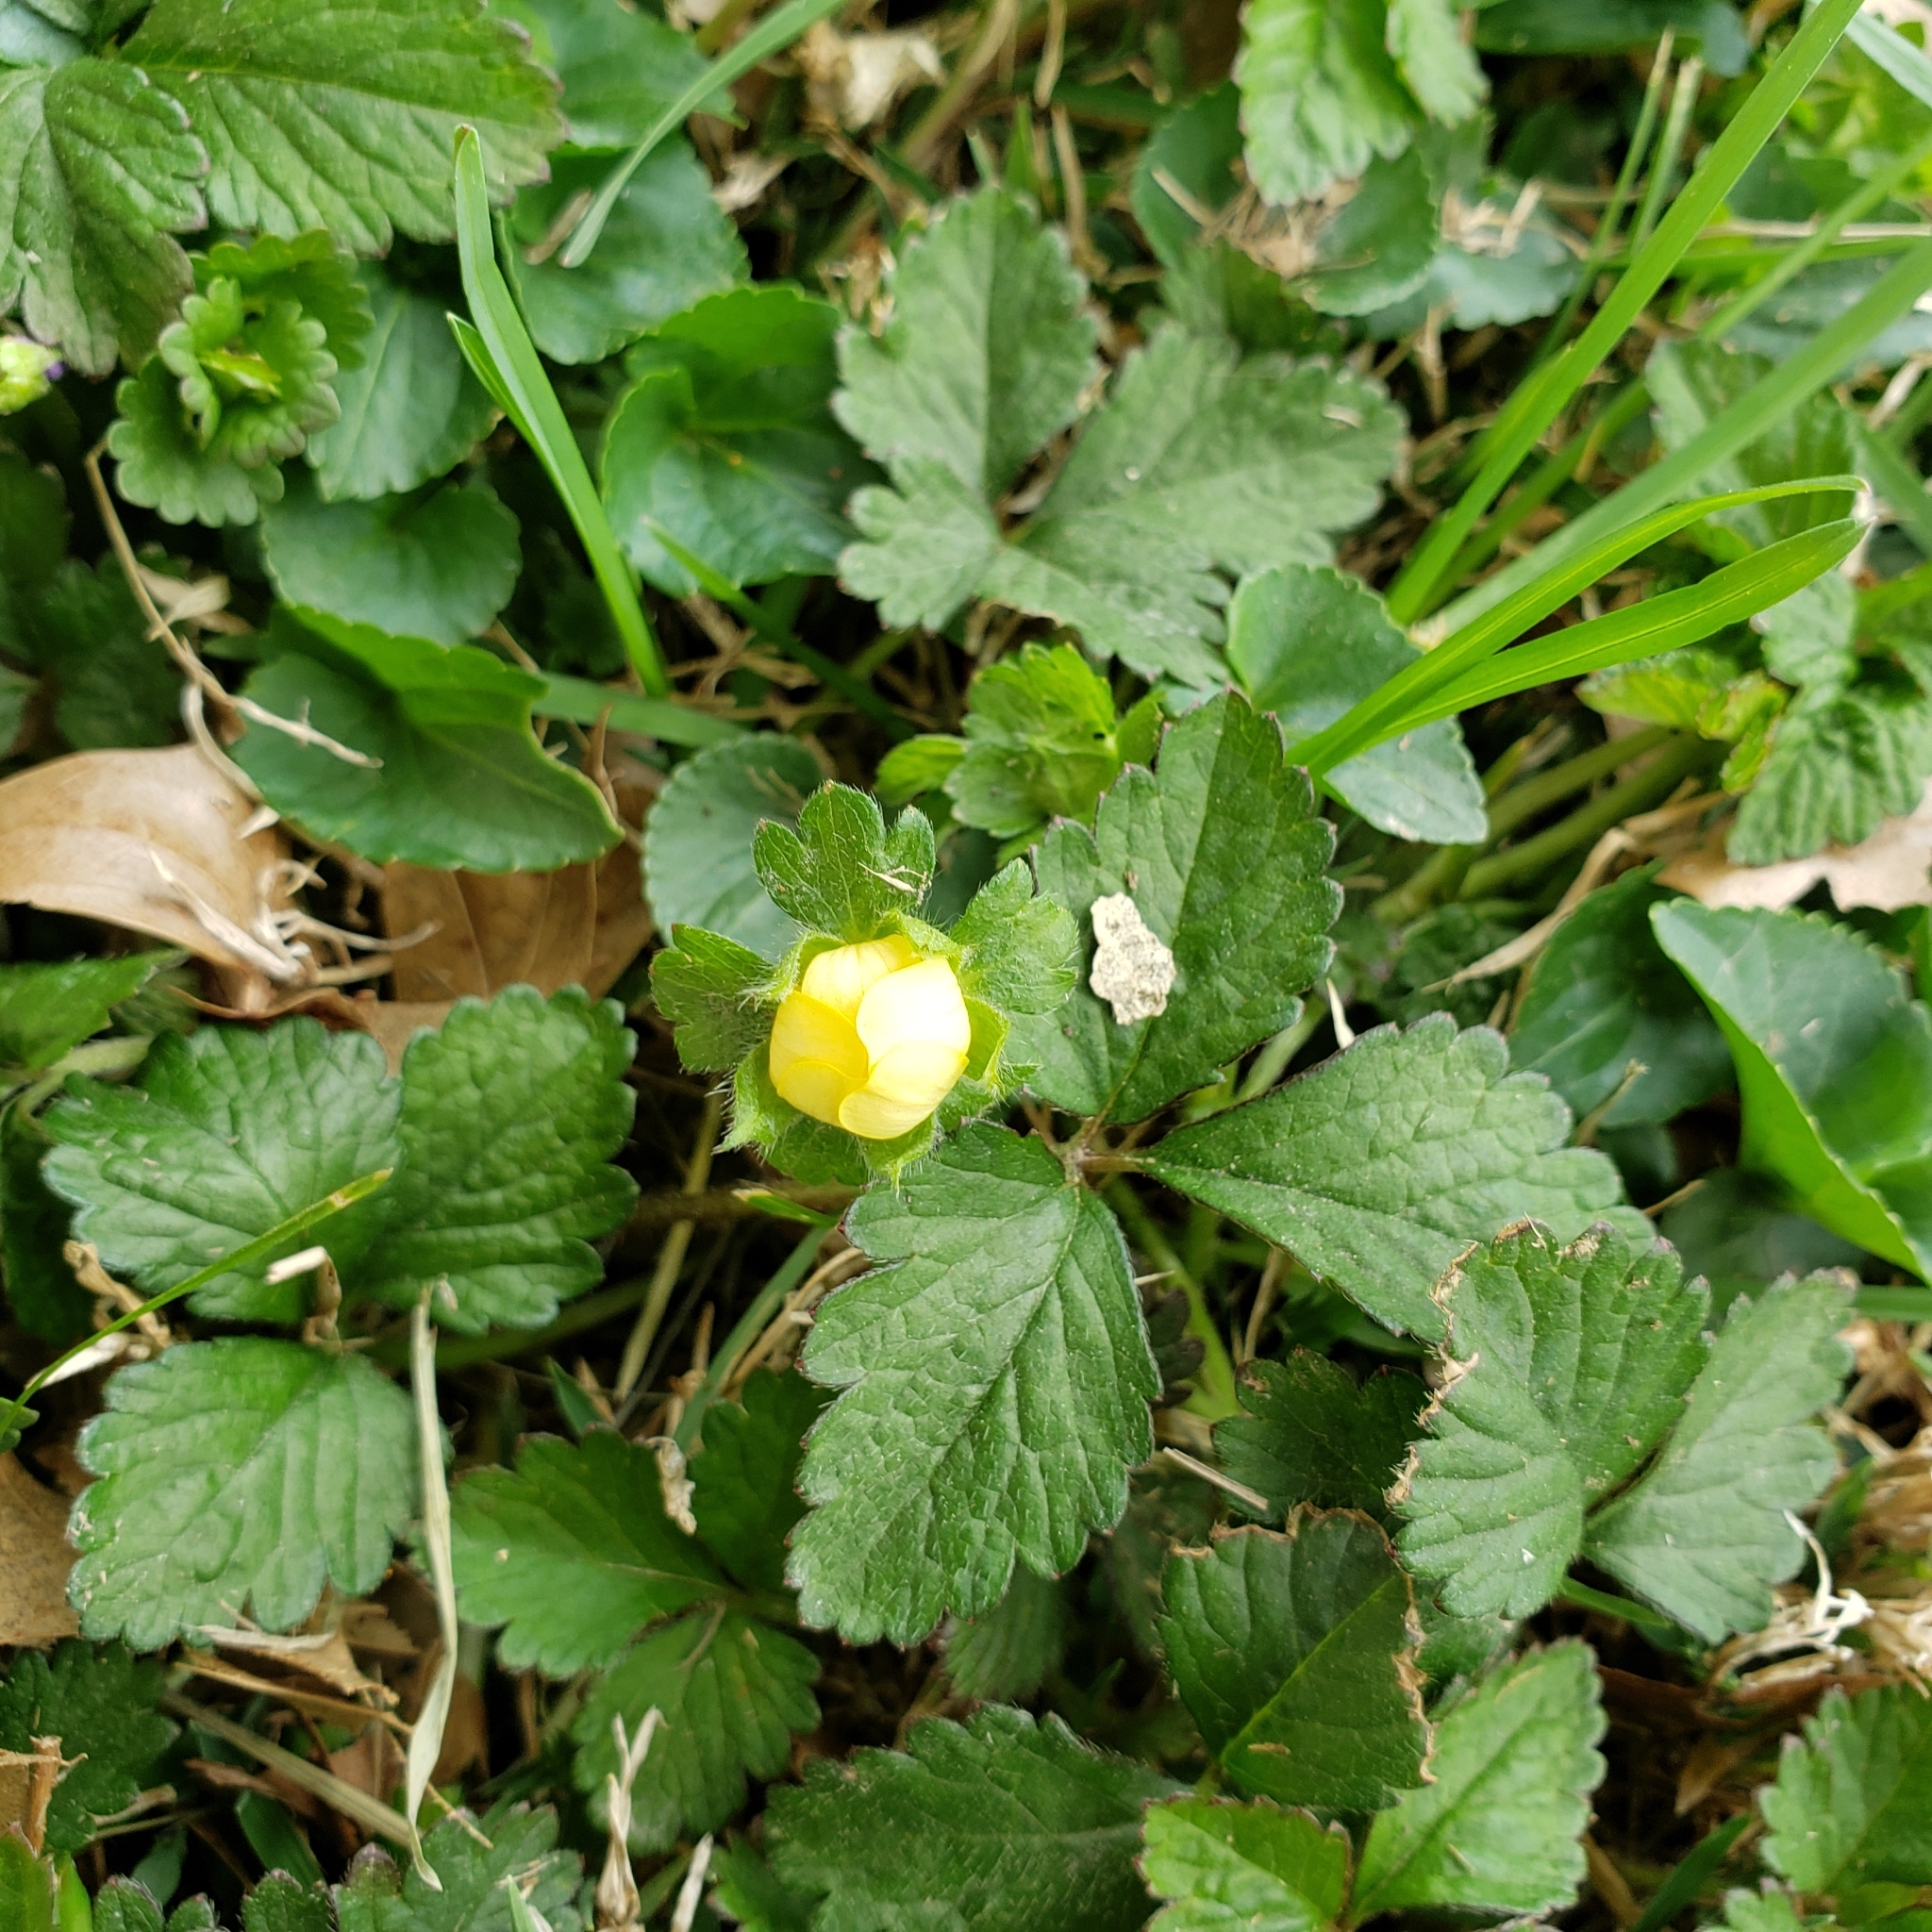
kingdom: Plantae
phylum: Tracheophyta
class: Magnoliopsida
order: Rosales
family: Rosaceae
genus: Potentilla
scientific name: Potentilla indica
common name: Yellow-flowered strawberry
